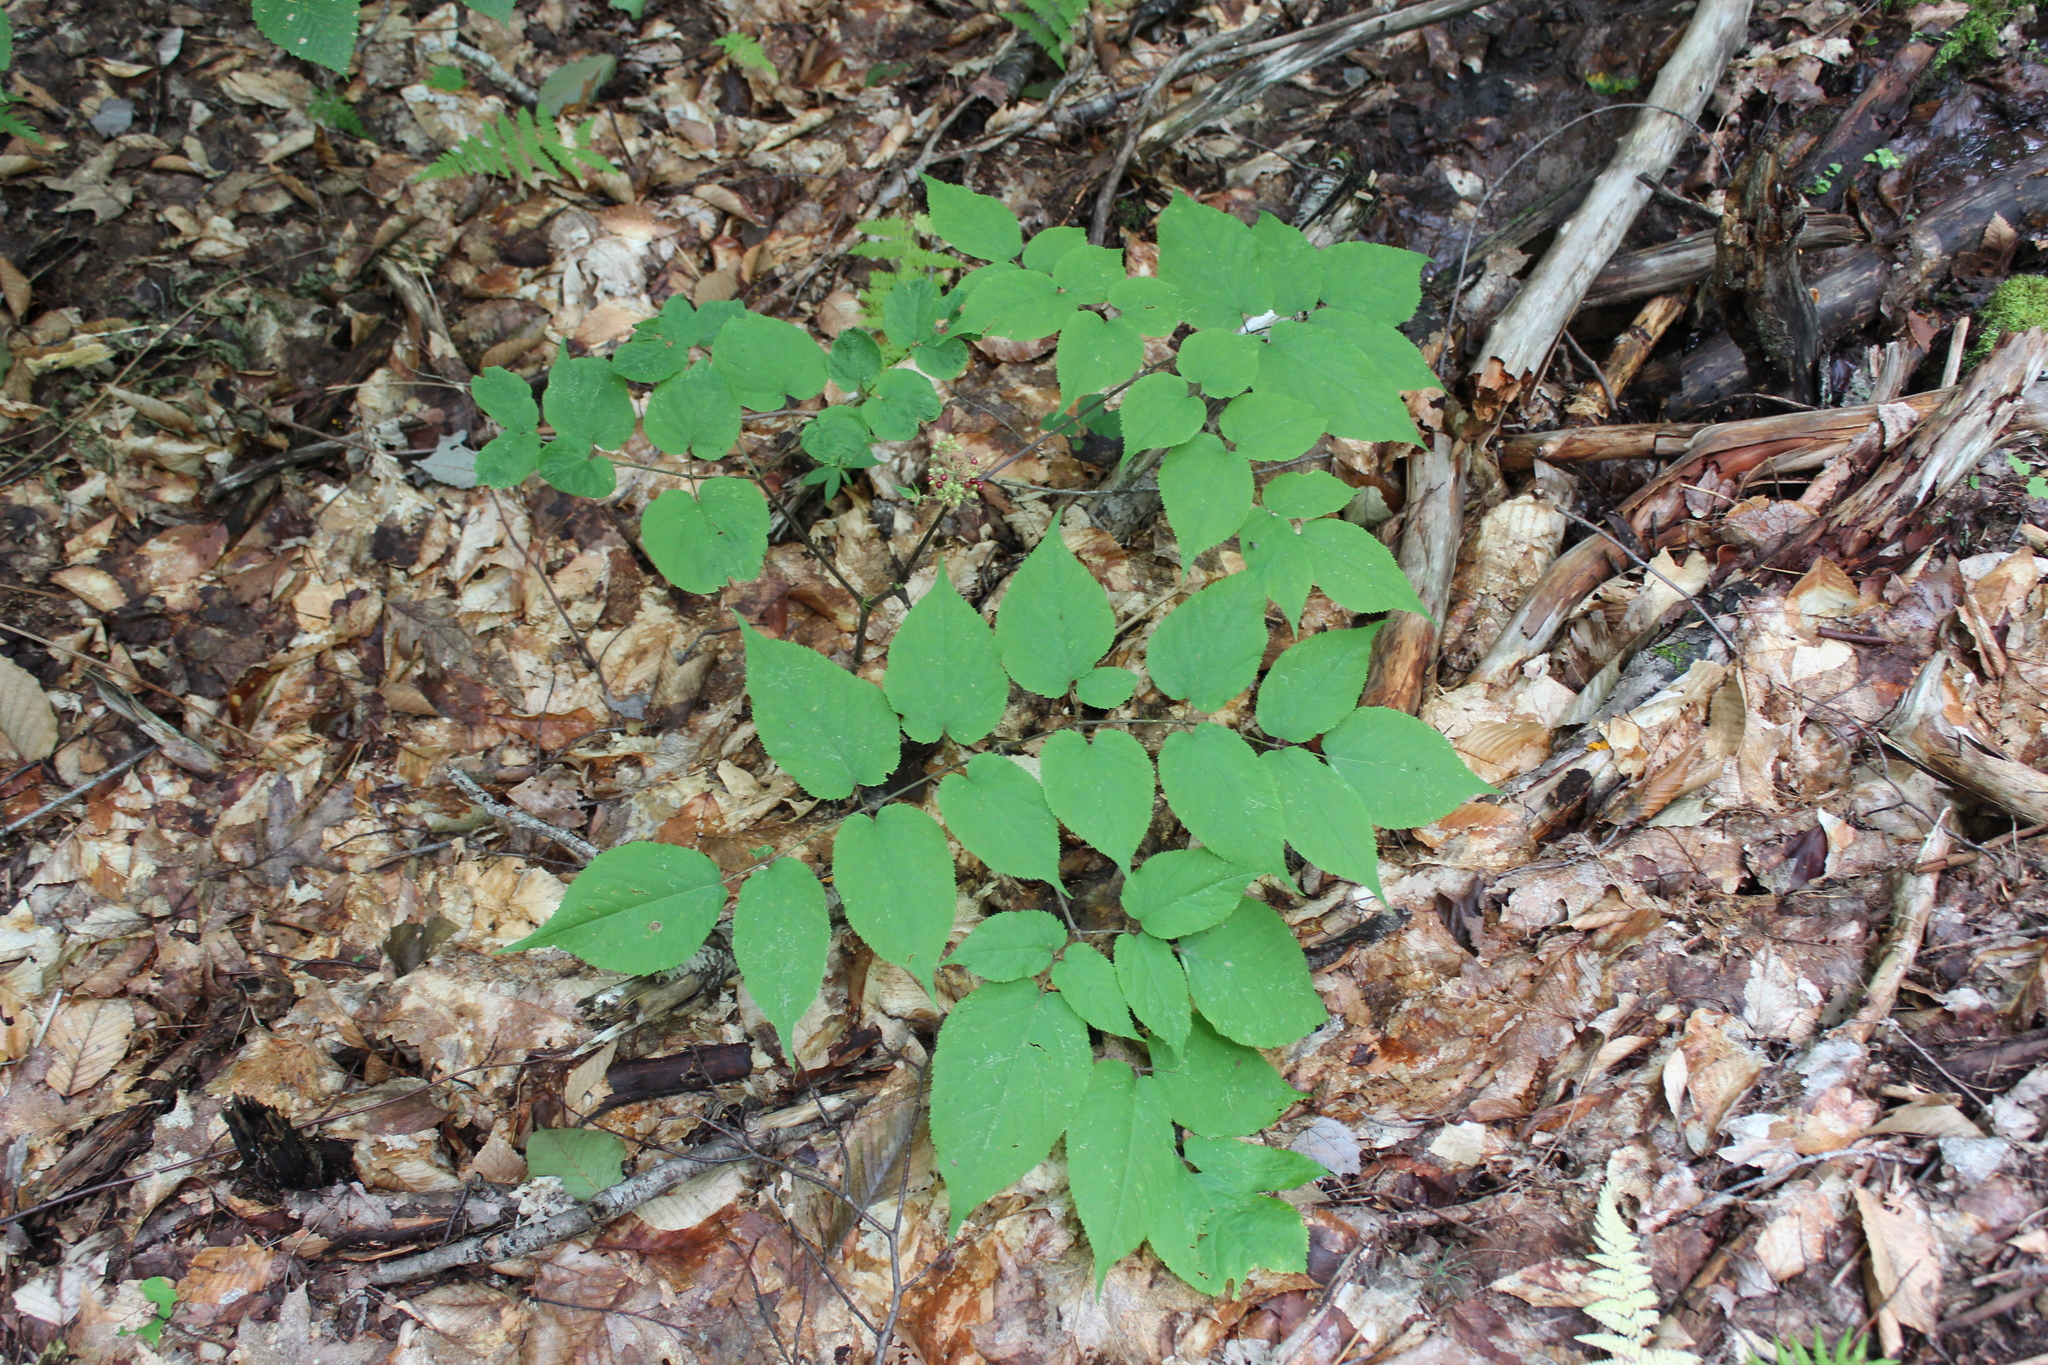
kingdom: Plantae
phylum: Tracheophyta
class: Magnoliopsida
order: Apiales
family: Araliaceae
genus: Aralia
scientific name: Aralia racemosa
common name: American-spikenard
